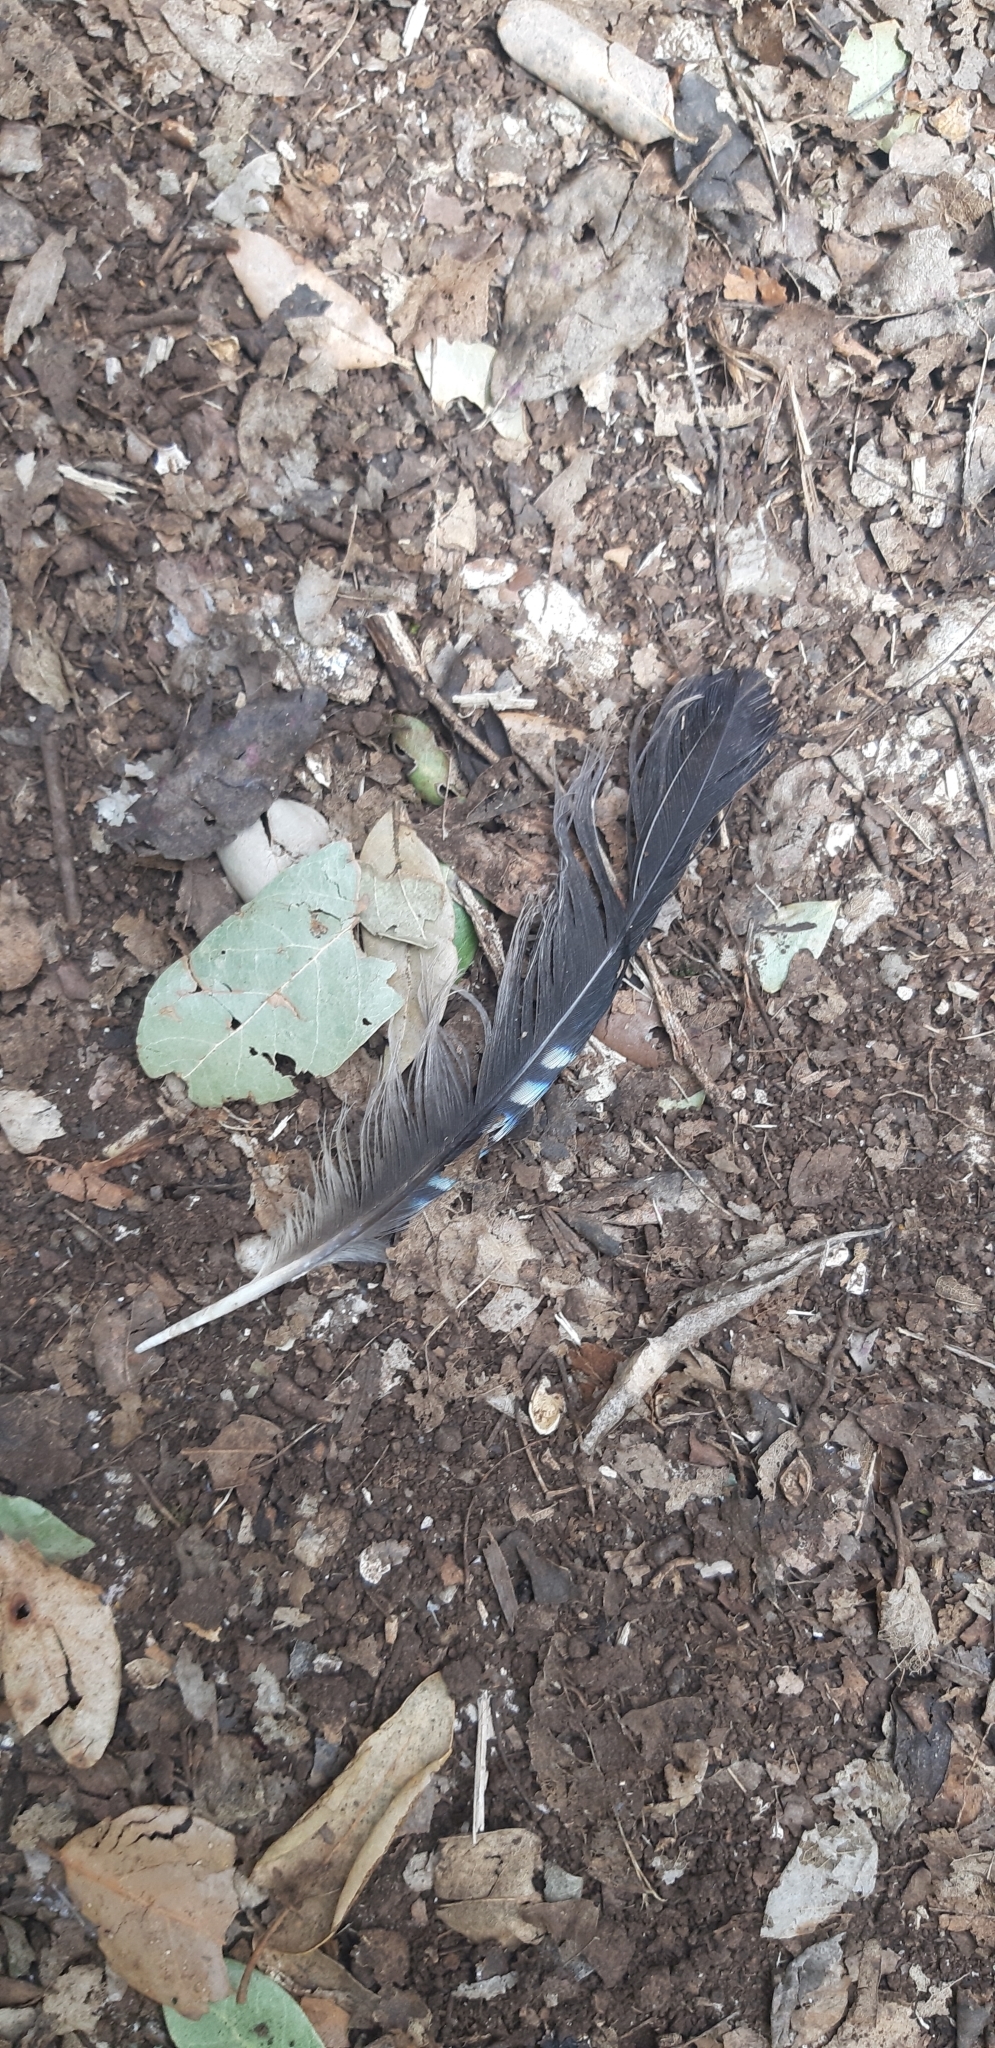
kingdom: Animalia
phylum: Chordata
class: Aves
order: Passeriformes
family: Corvidae
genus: Garrulus
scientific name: Garrulus glandarius
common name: Eurasian jay
